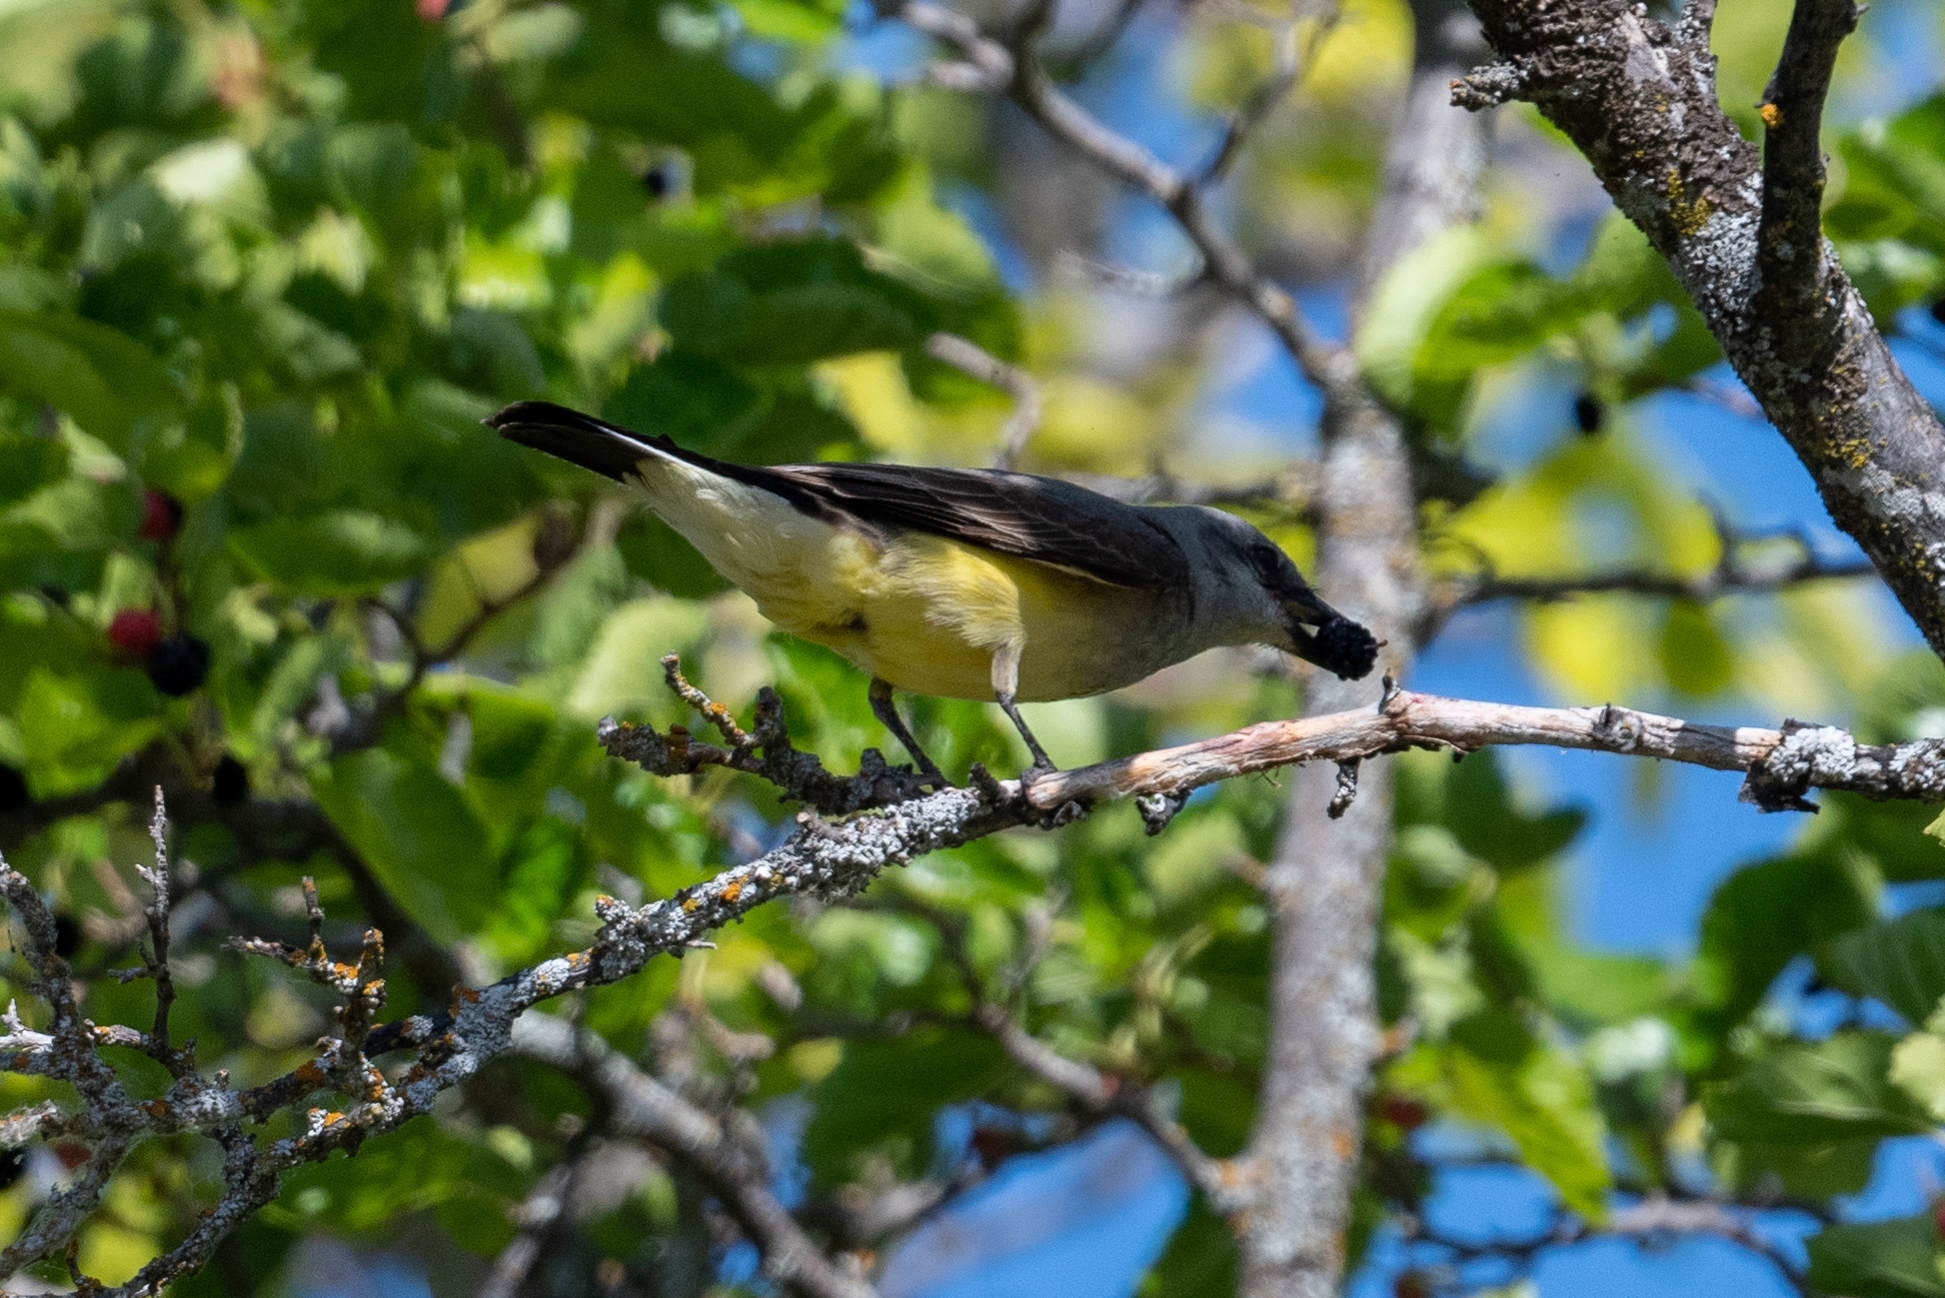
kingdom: Animalia
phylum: Chordata
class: Aves
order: Passeriformes
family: Tyrannidae
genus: Tyrannus
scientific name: Tyrannus verticalis
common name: Western kingbird
